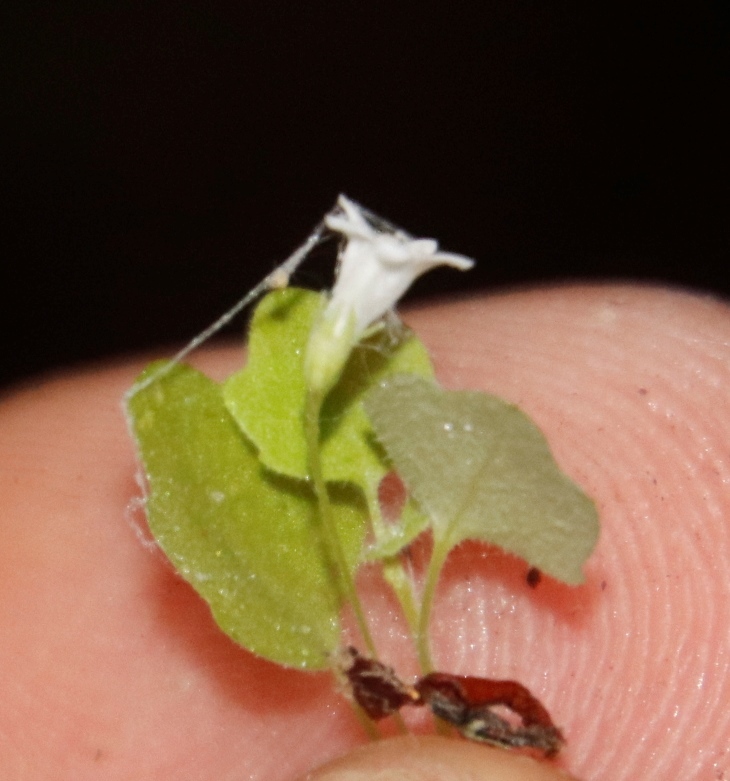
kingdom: Plantae
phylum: Tracheophyta
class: Magnoliopsida
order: Asterales
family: Campanulaceae
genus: Wimmerella
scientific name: Wimmerella pygmaea
